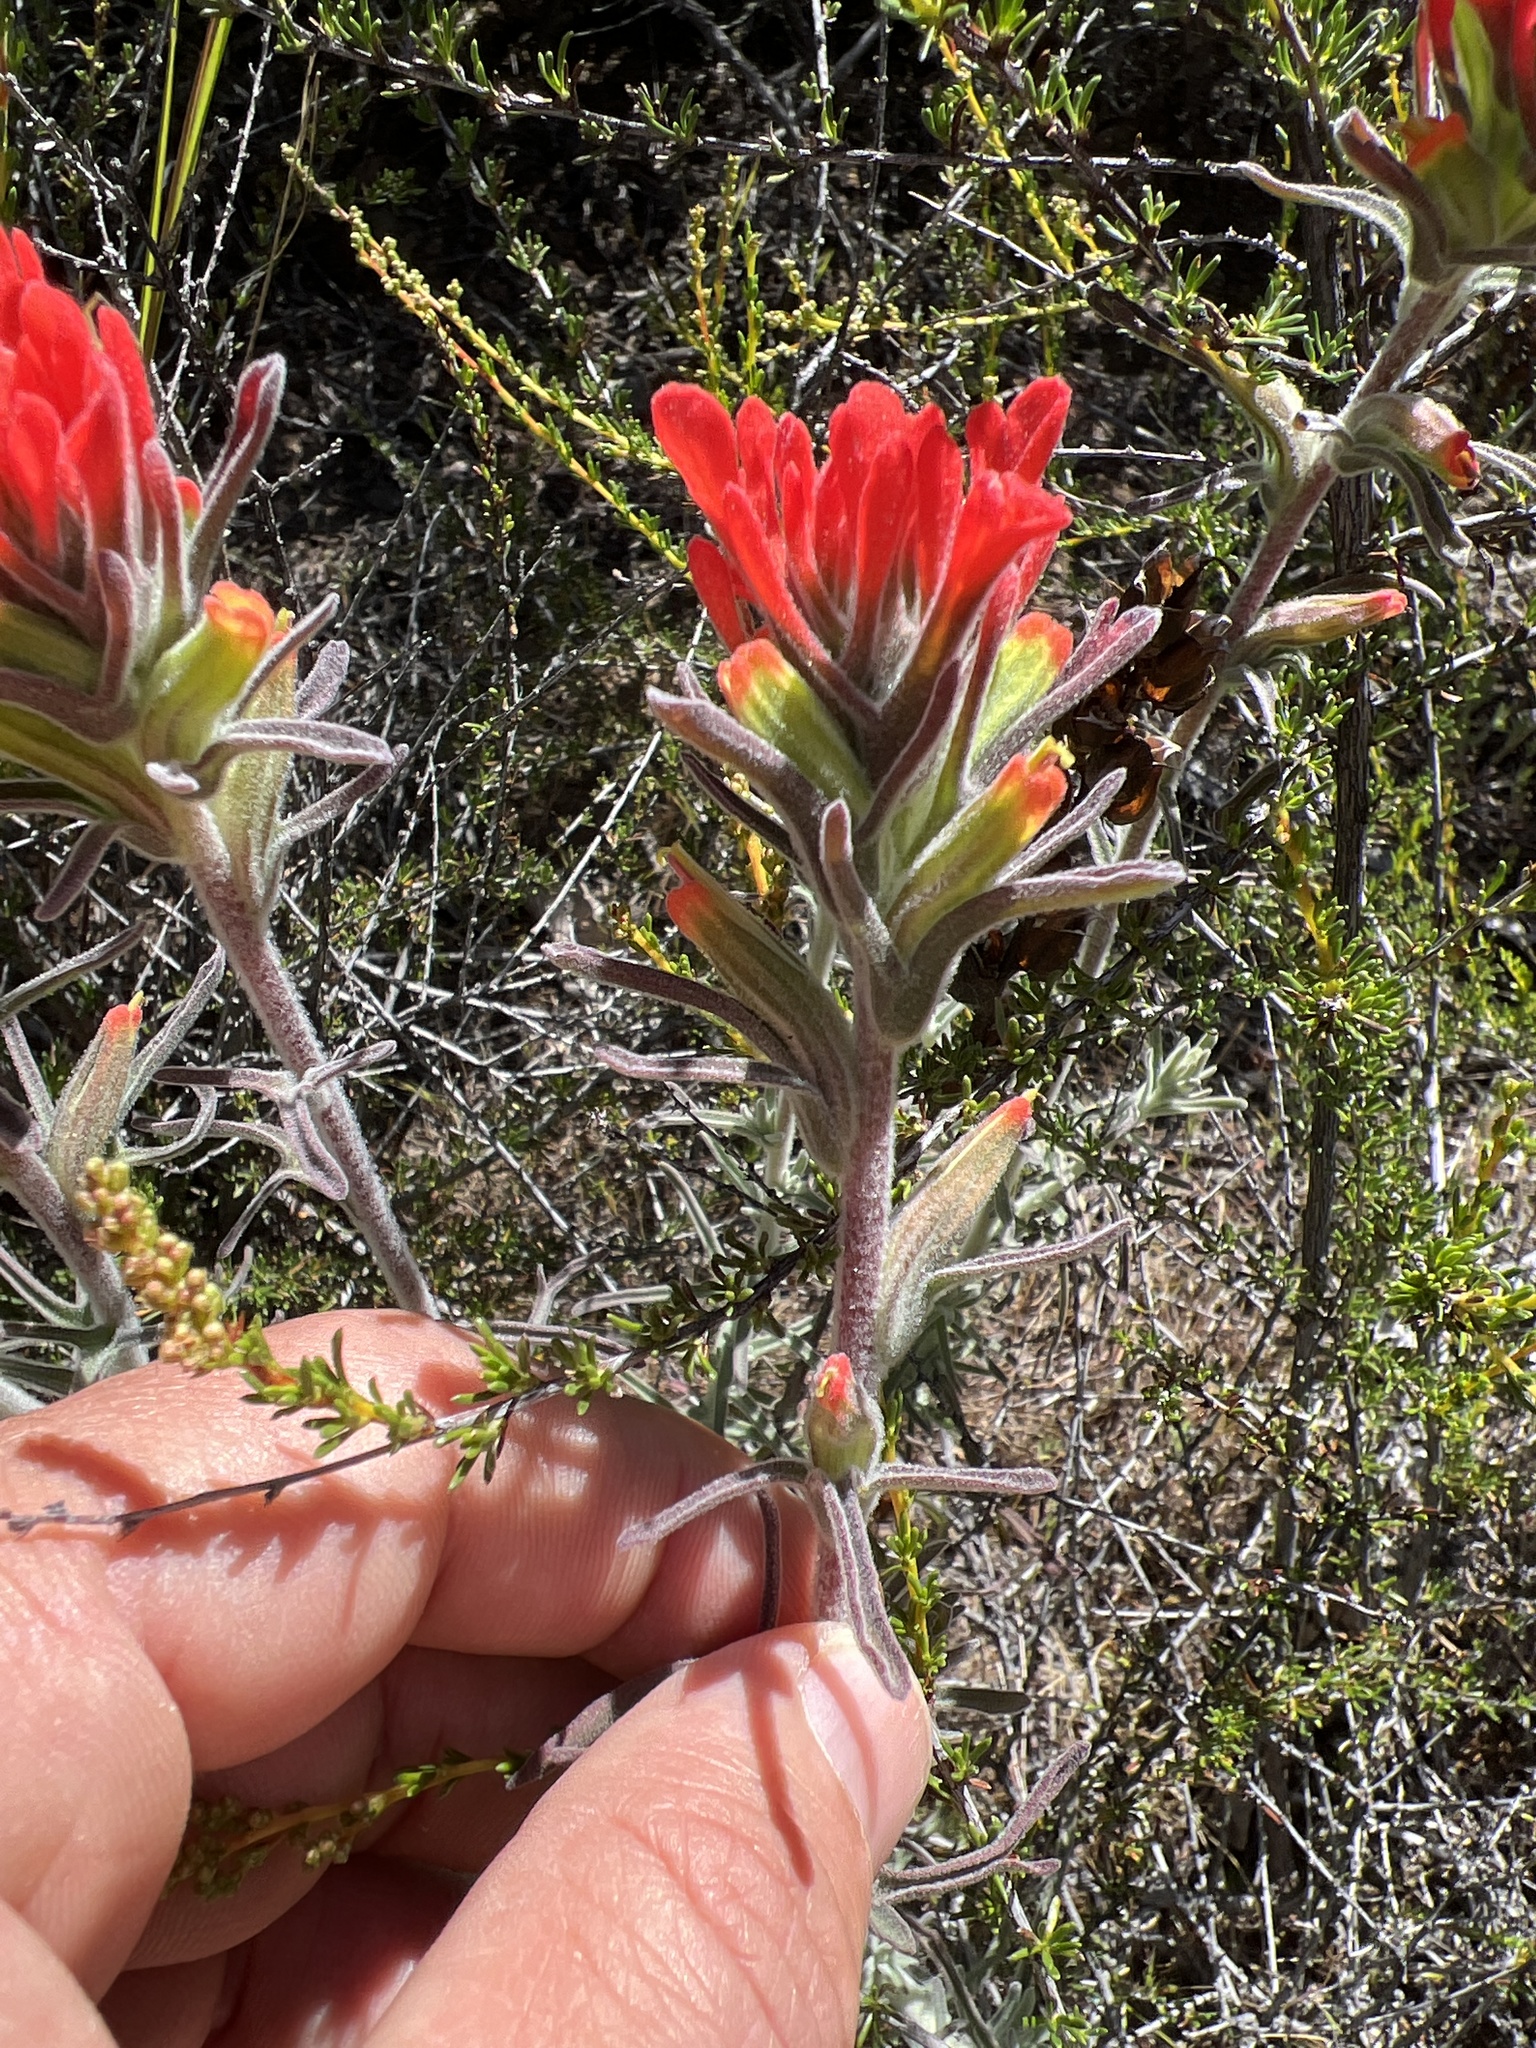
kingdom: Plantae
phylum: Tracheophyta
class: Magnoliopsida
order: Lamiales
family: Orobanchaceae
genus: Castilleja
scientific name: Castilleja foliolosa
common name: Woolly indian paintbrush
